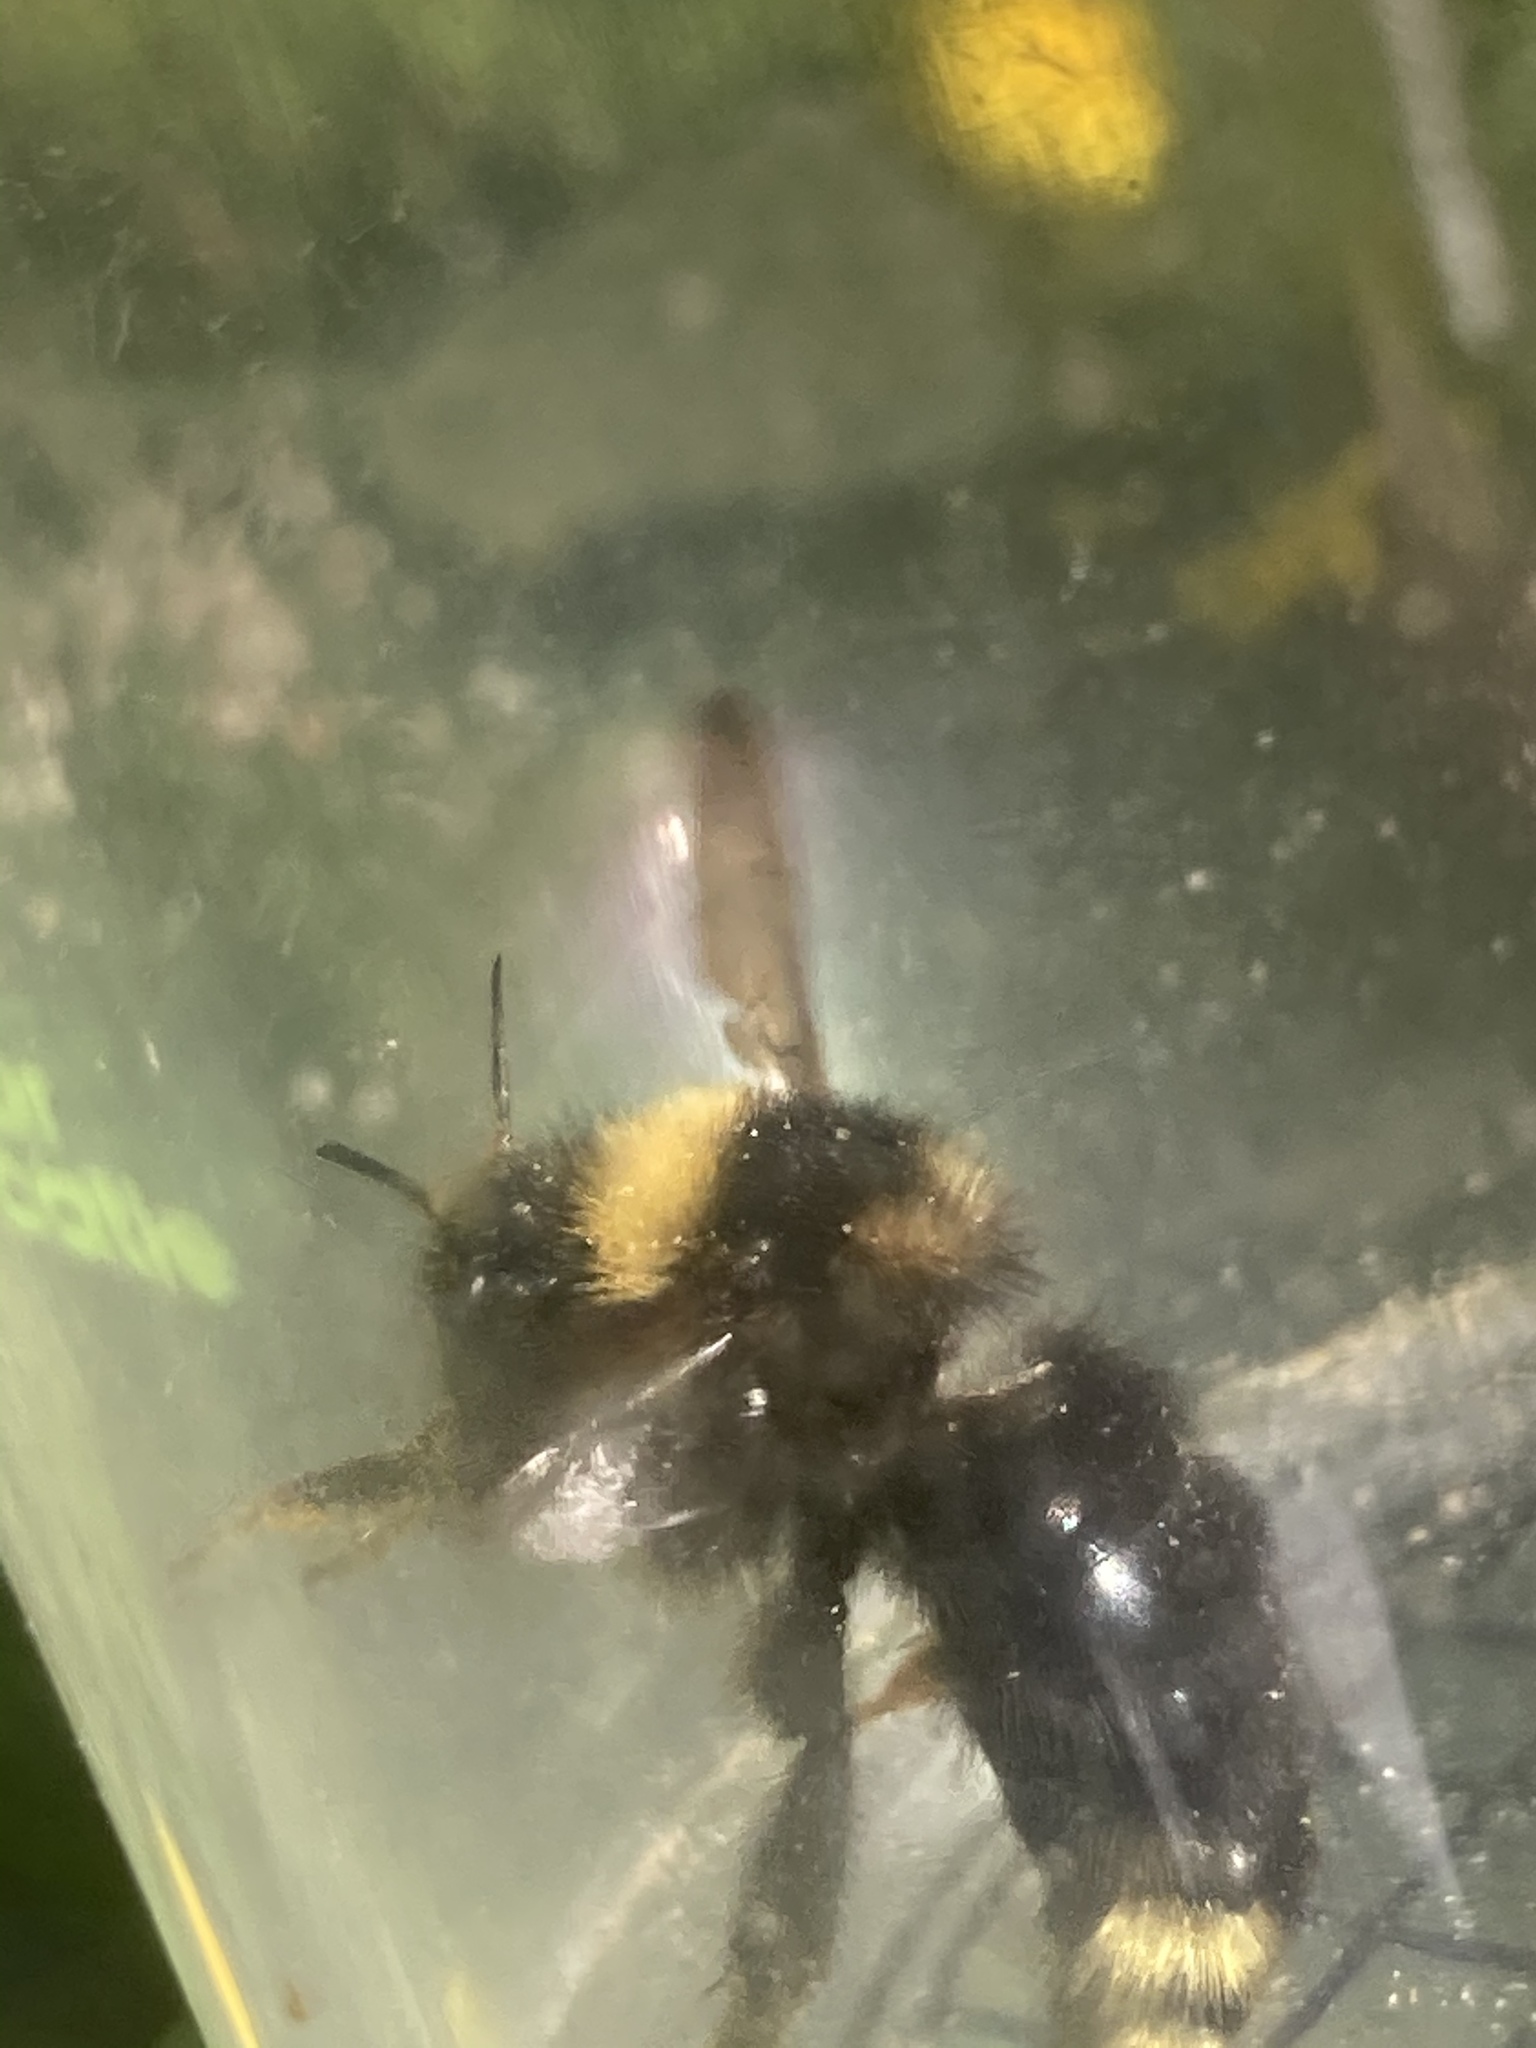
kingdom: Animalia
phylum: Arthropoda
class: Insecta
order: Hymenoptera
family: Apidae
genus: Bombus
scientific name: Bombus campestris
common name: Field cuckoo-bee
